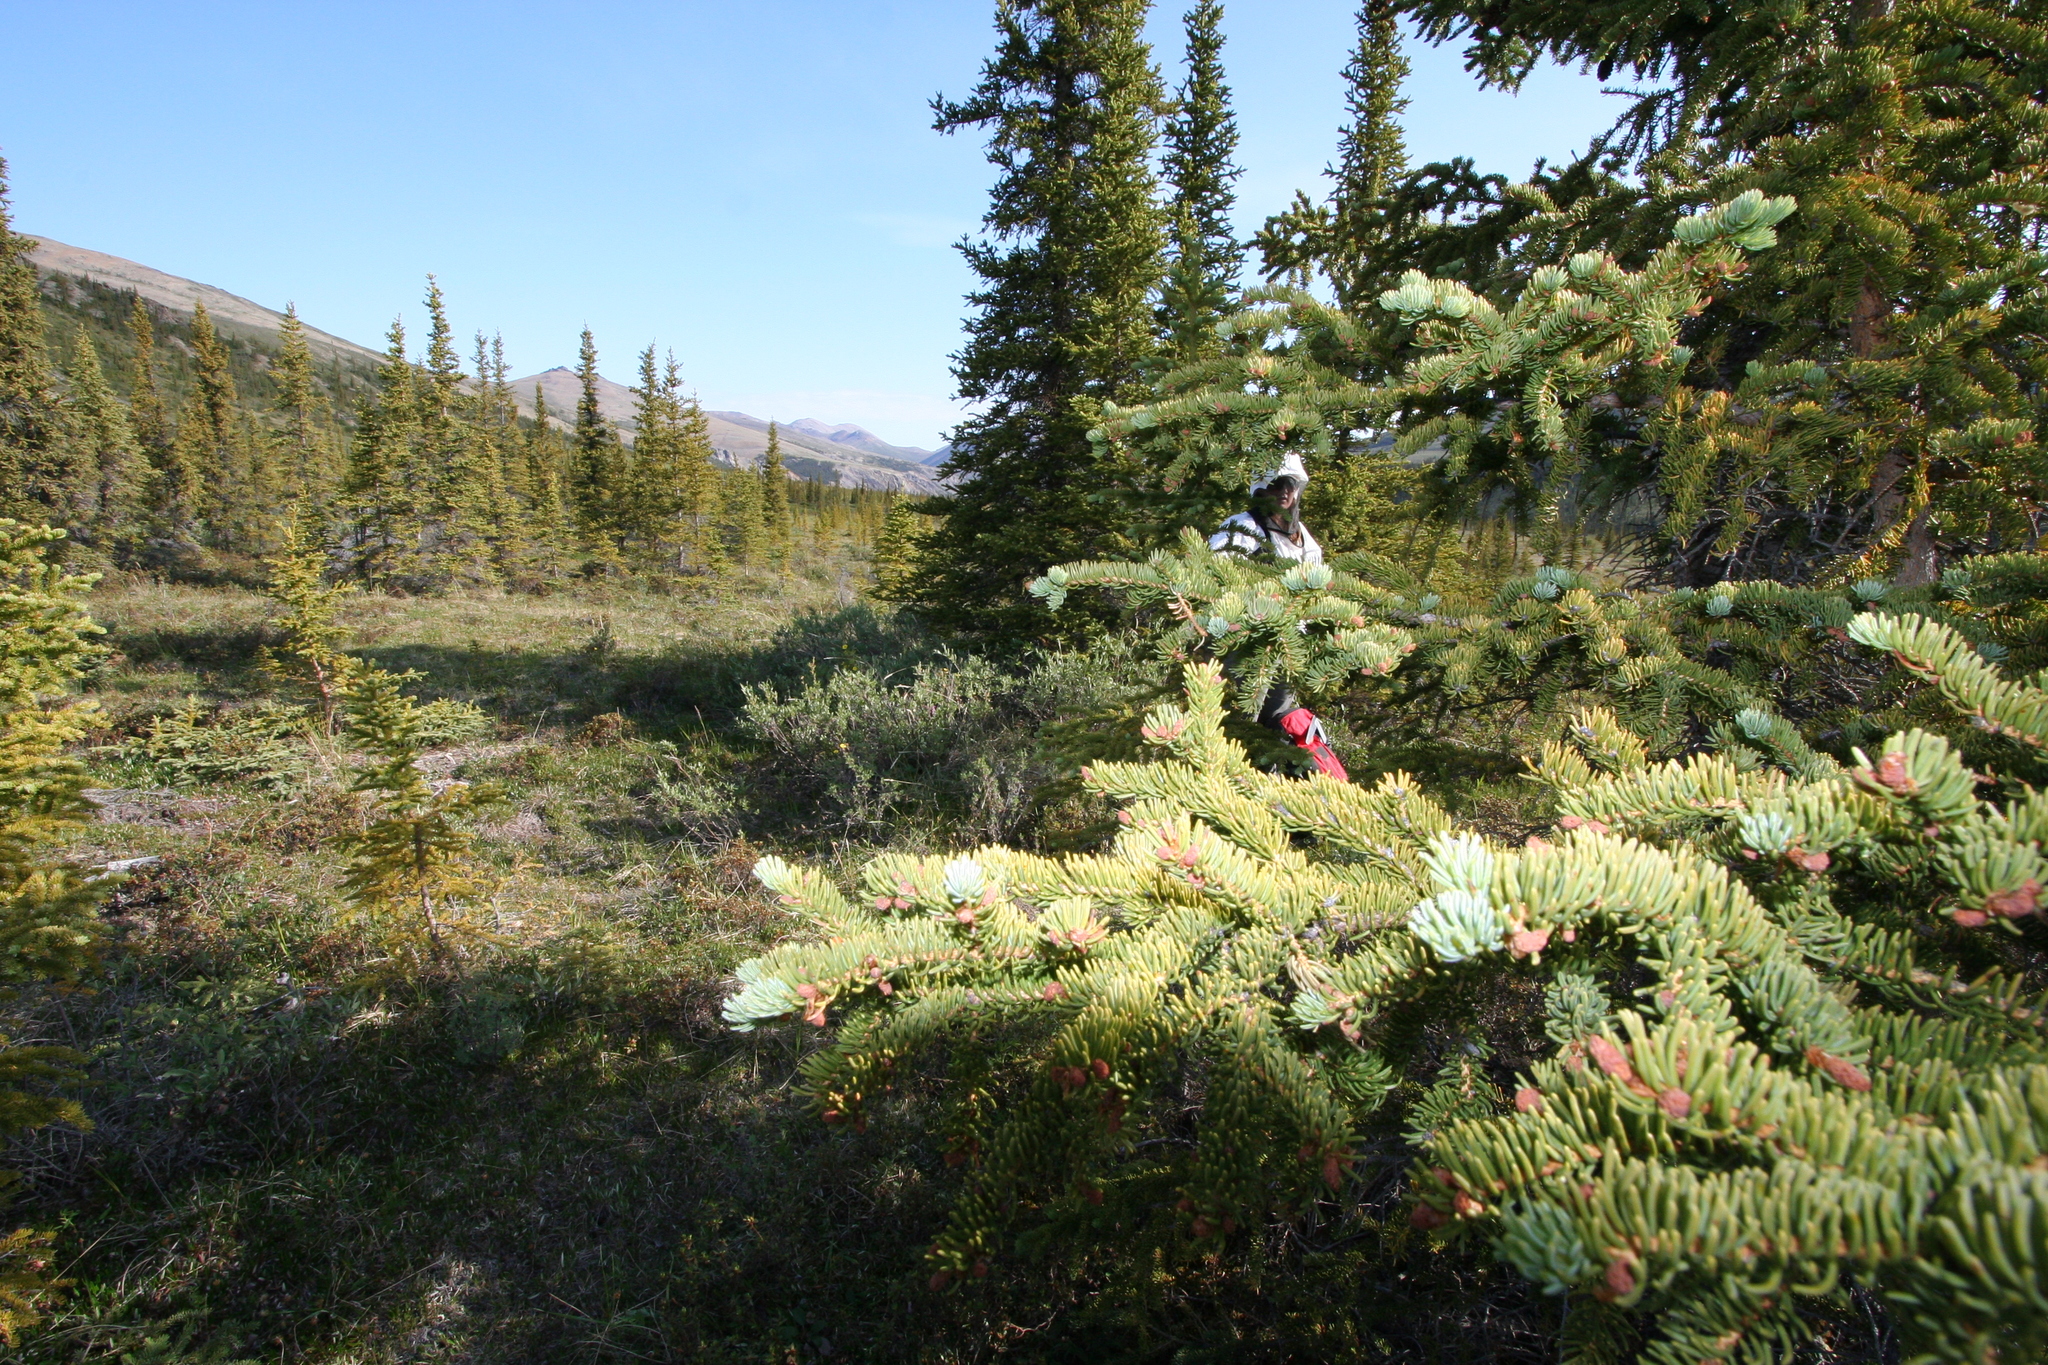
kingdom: Plantae
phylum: Tracheophyta
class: Pinopsida
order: Pinales
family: Pinaceae
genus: Picea
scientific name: Picea glauca
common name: White spruce
